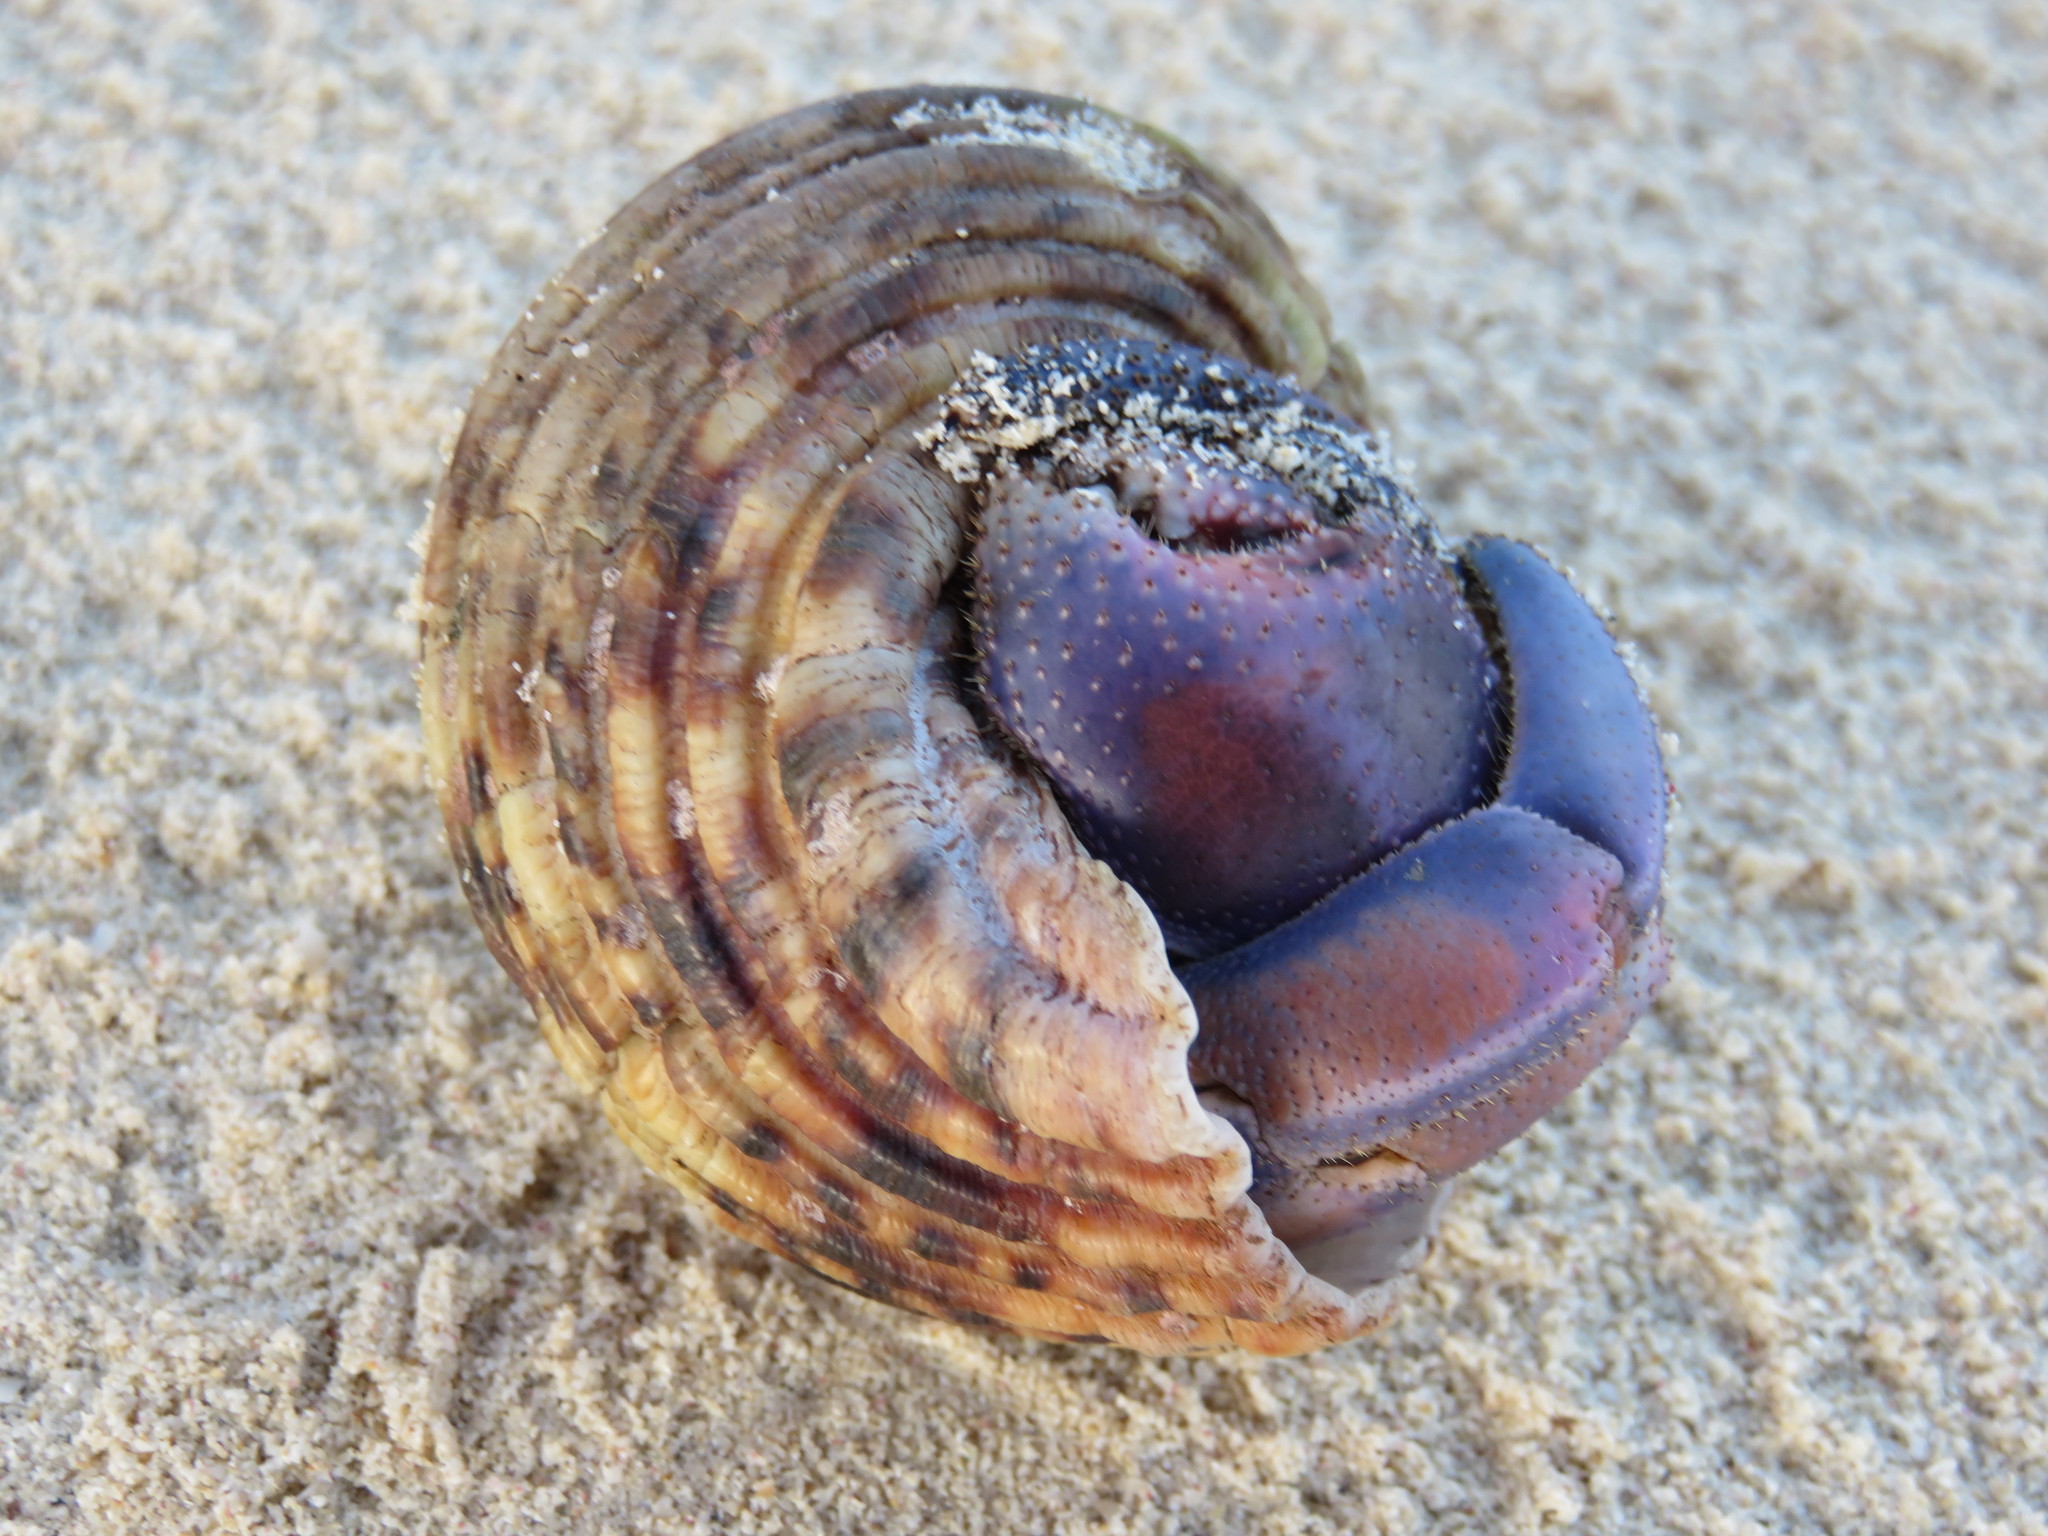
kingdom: Animalia
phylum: Arthropoda
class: Malacostraca
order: Decapoda
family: Coenobitidae
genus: Coenobita
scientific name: Coenobita purpureus
